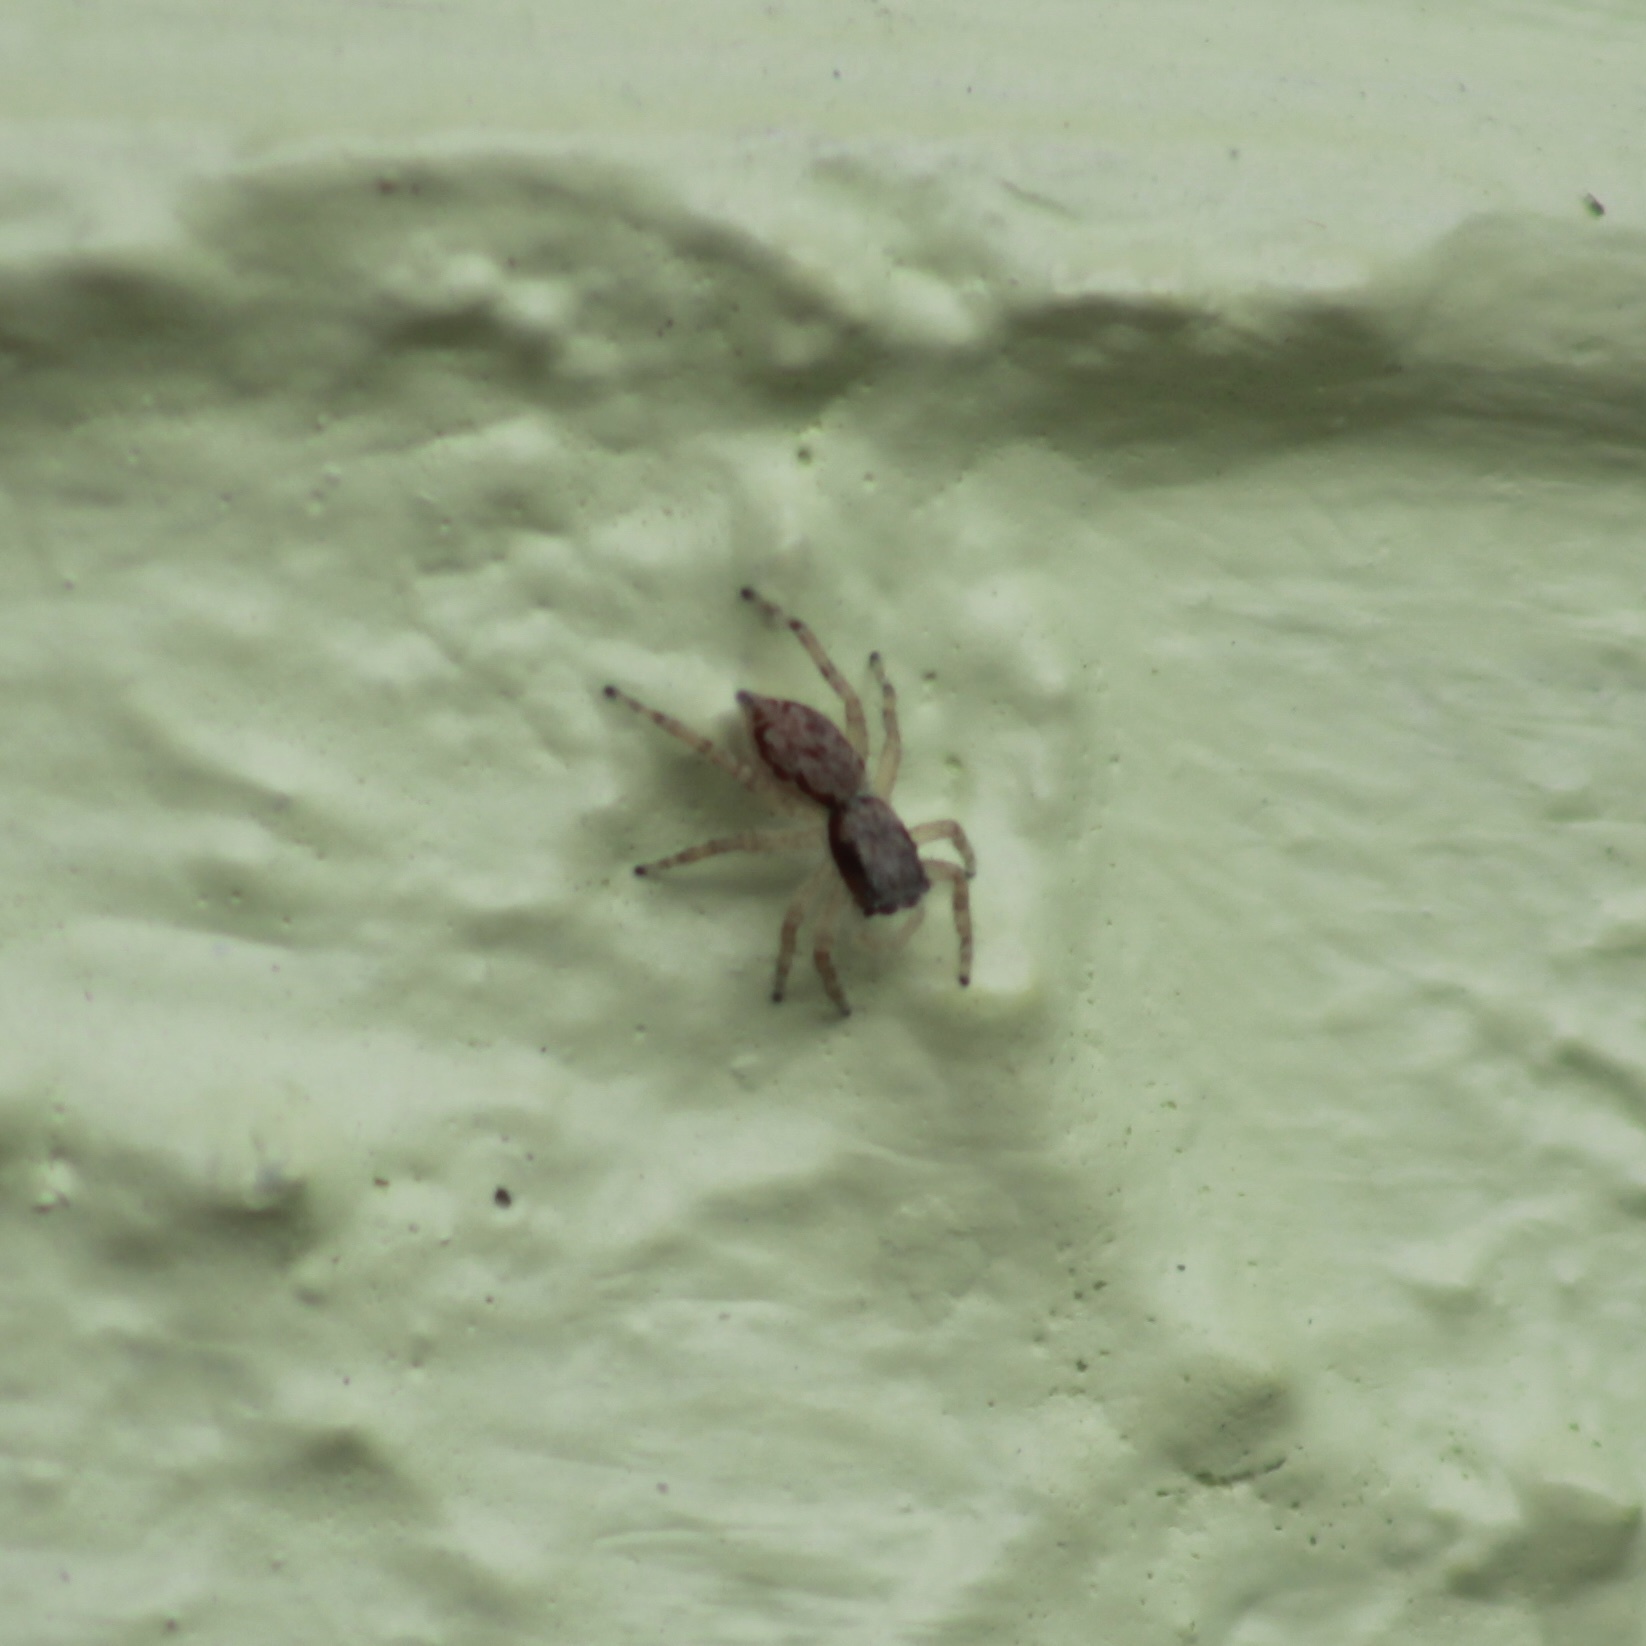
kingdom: Animalia
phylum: Arthropoda
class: Arachnida
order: Araneae
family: Salticidae
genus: Menemerus
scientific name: Menemerus bivittatus
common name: Gray wall jumper
